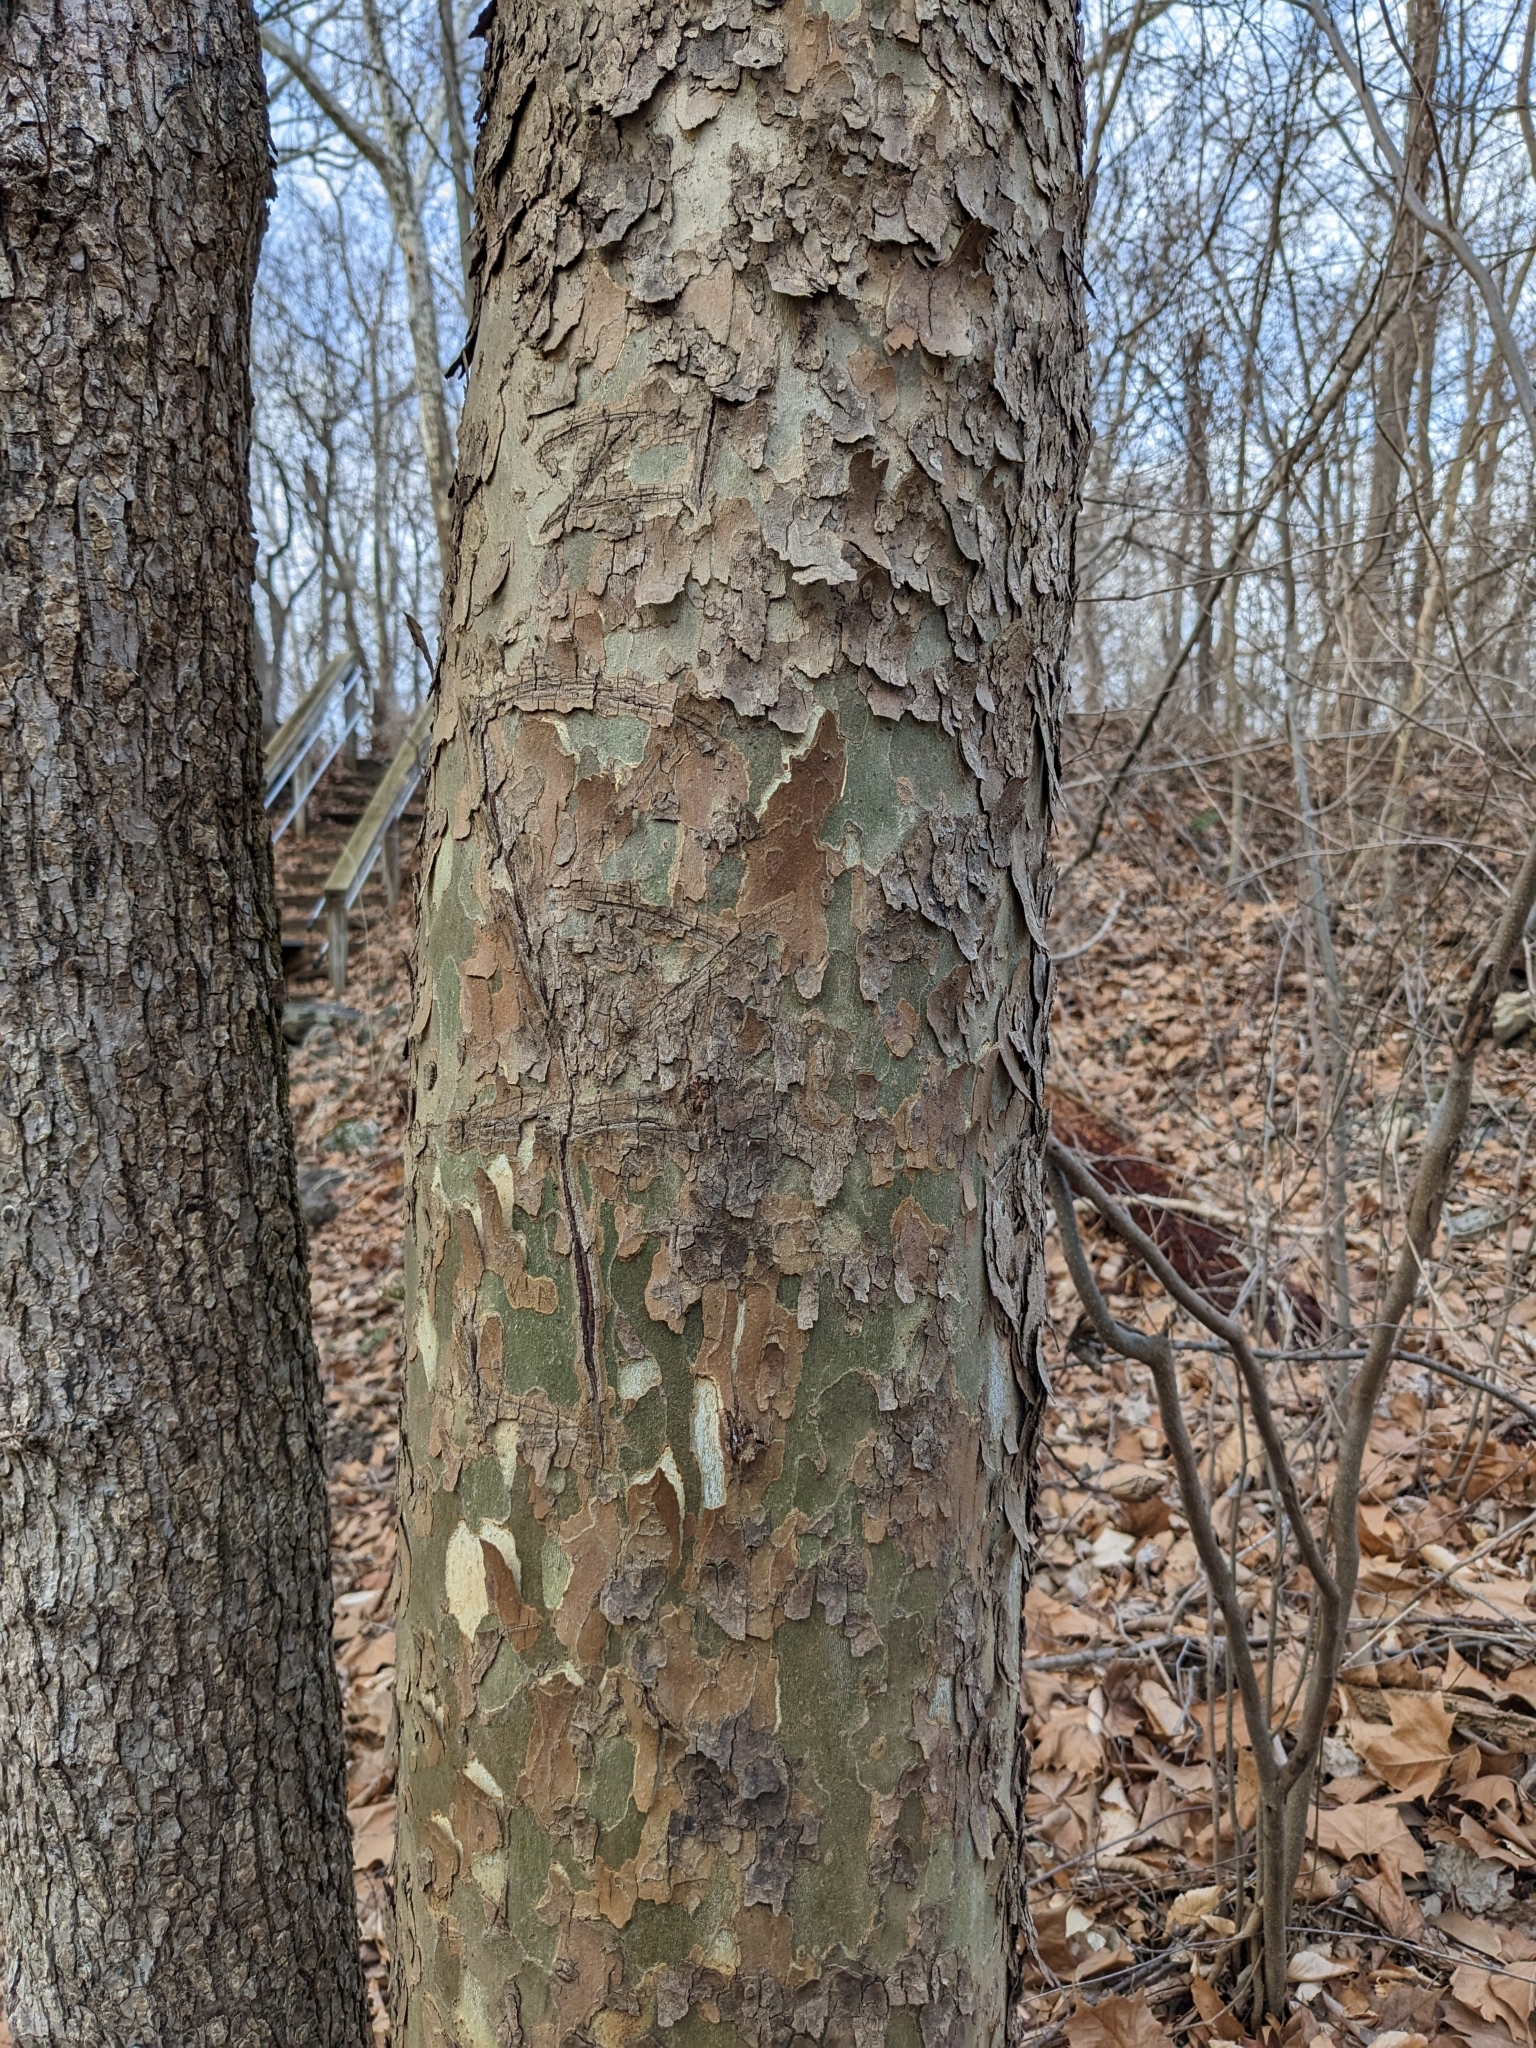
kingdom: Plantae
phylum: Tracheophyta
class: Magnoliopsida
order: Proteales
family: Platanaceae
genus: Platanus
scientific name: Platanus occidentalis
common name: American sycamore
